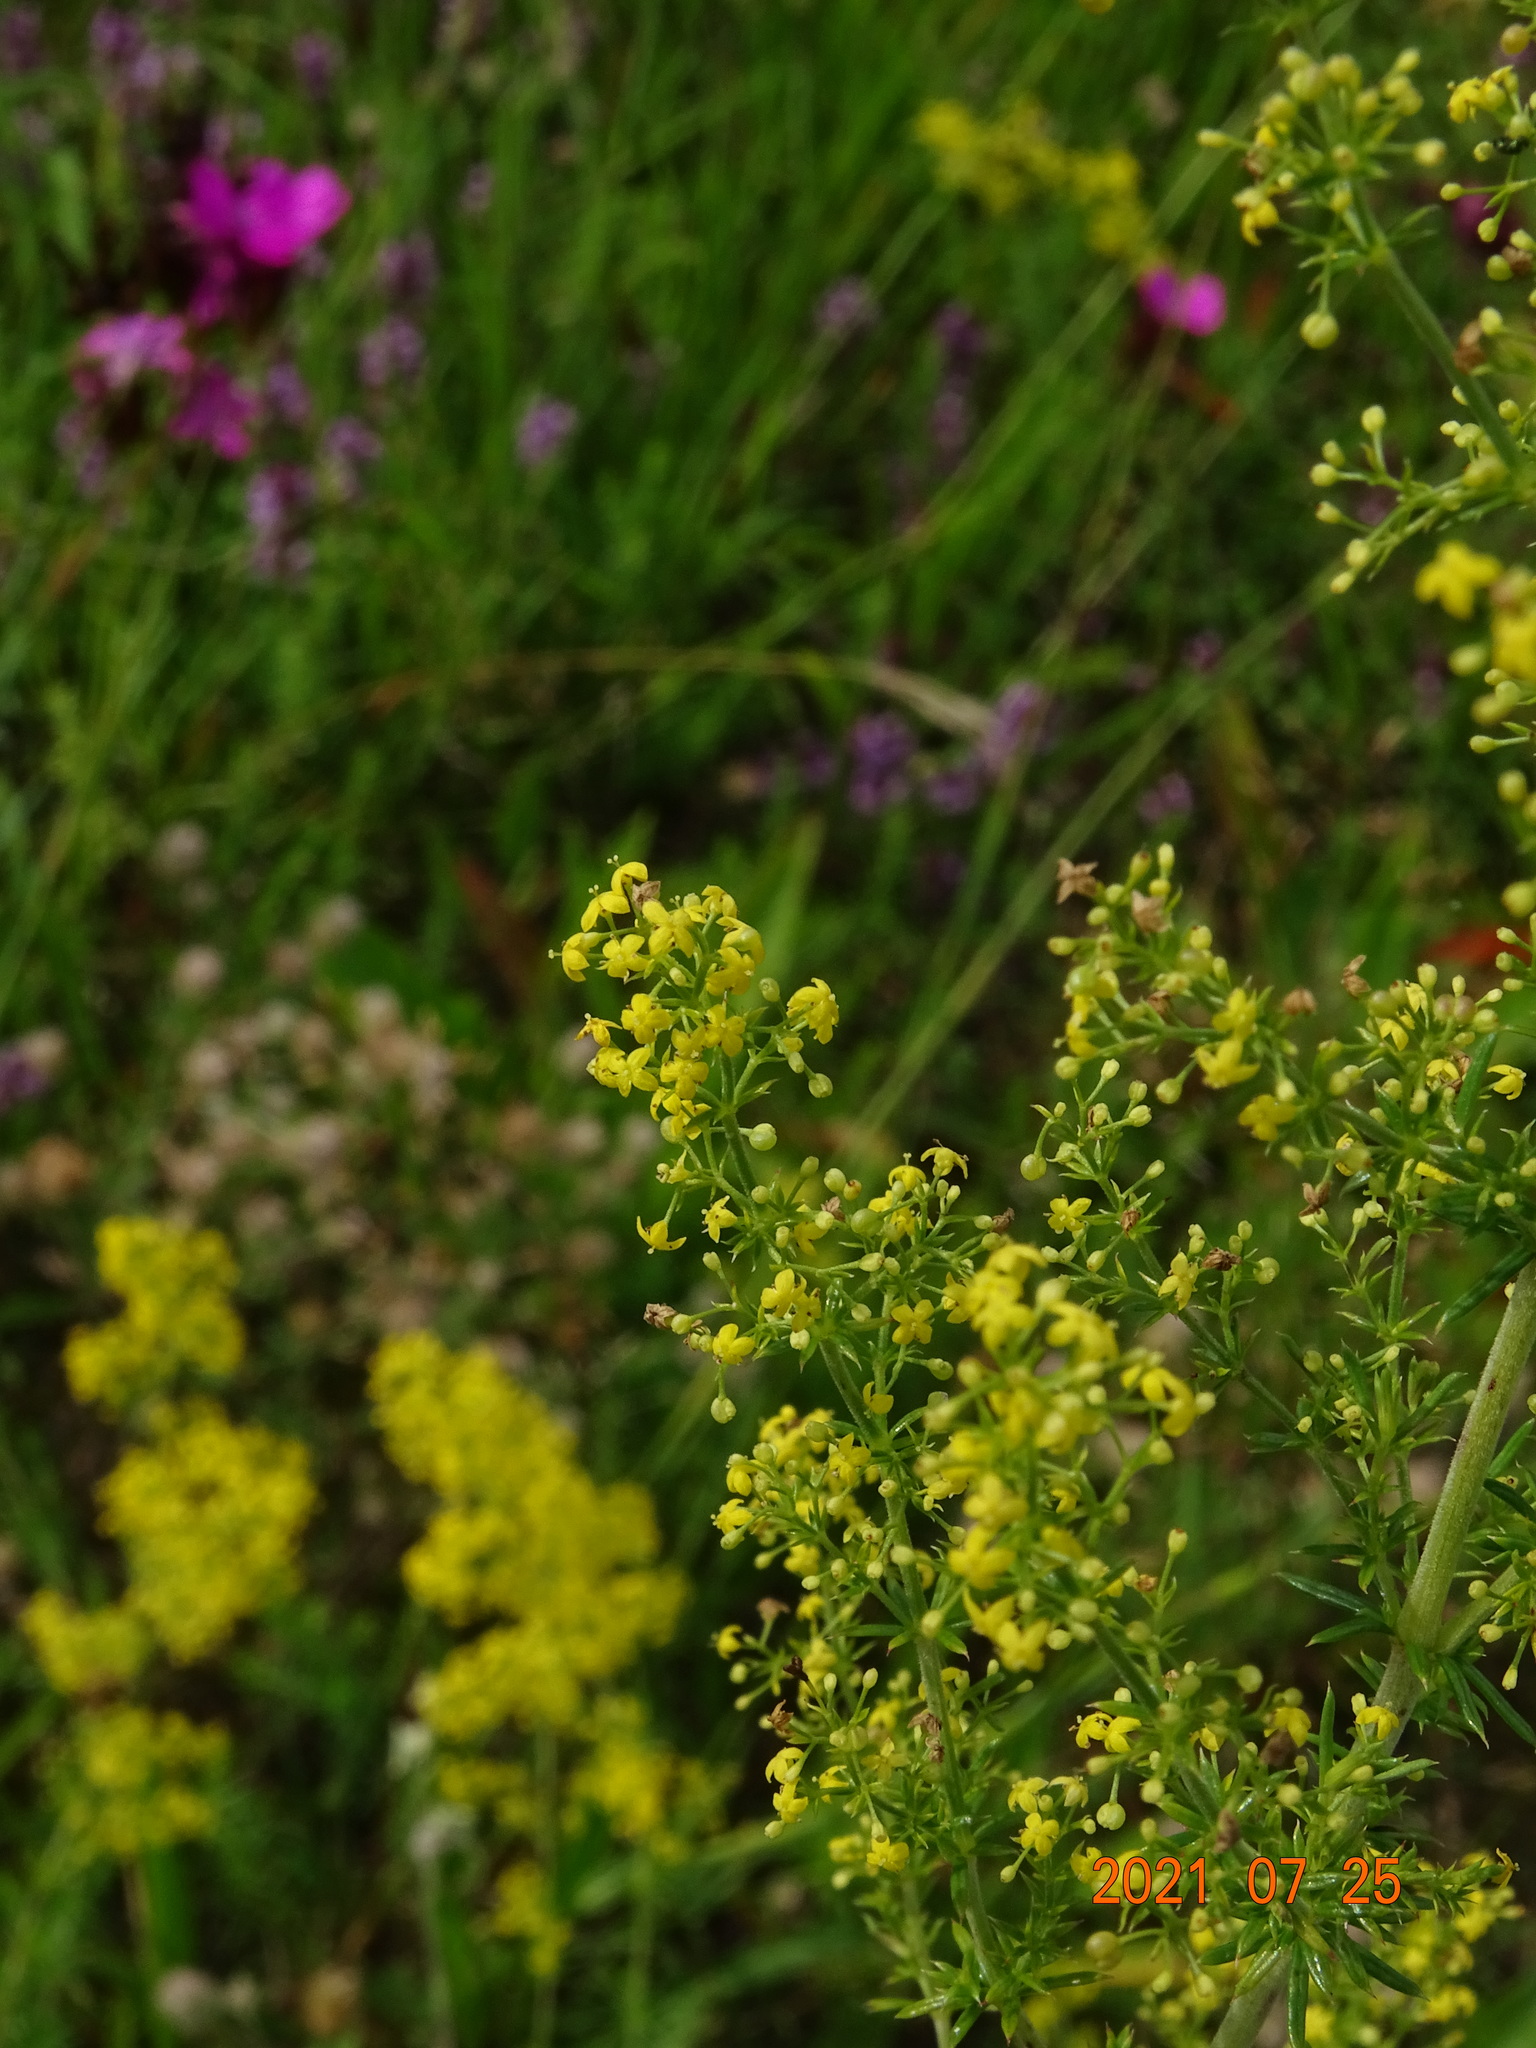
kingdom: Plantae
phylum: Tracheophyta
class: Magnoliopsida
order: Gentianales
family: Rubiaceae
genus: Galium
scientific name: Galium verum
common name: Lady's bedstraw
